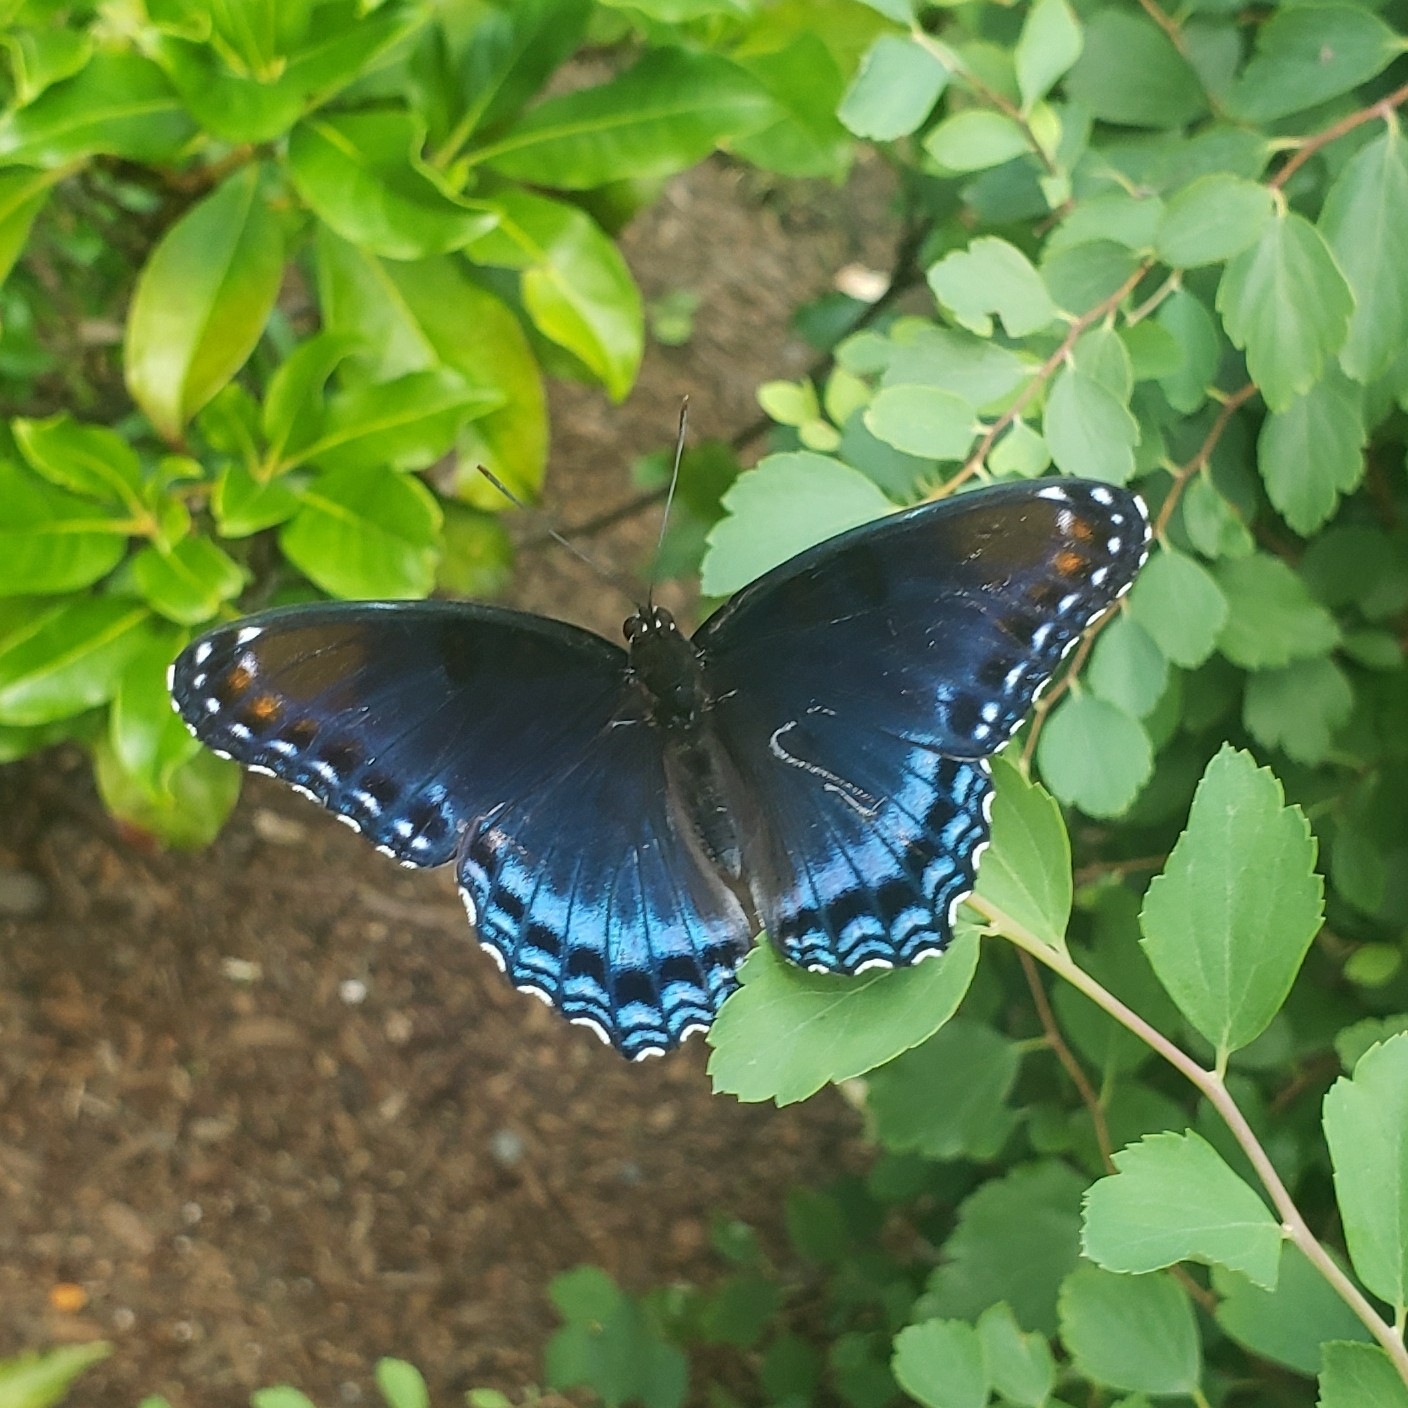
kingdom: Animalia
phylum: Arthropoda
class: Insecta
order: Lepidoptera
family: Nymphalidae
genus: Limenitis
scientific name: Limenitis arthemis
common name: Red-spotted admiral
